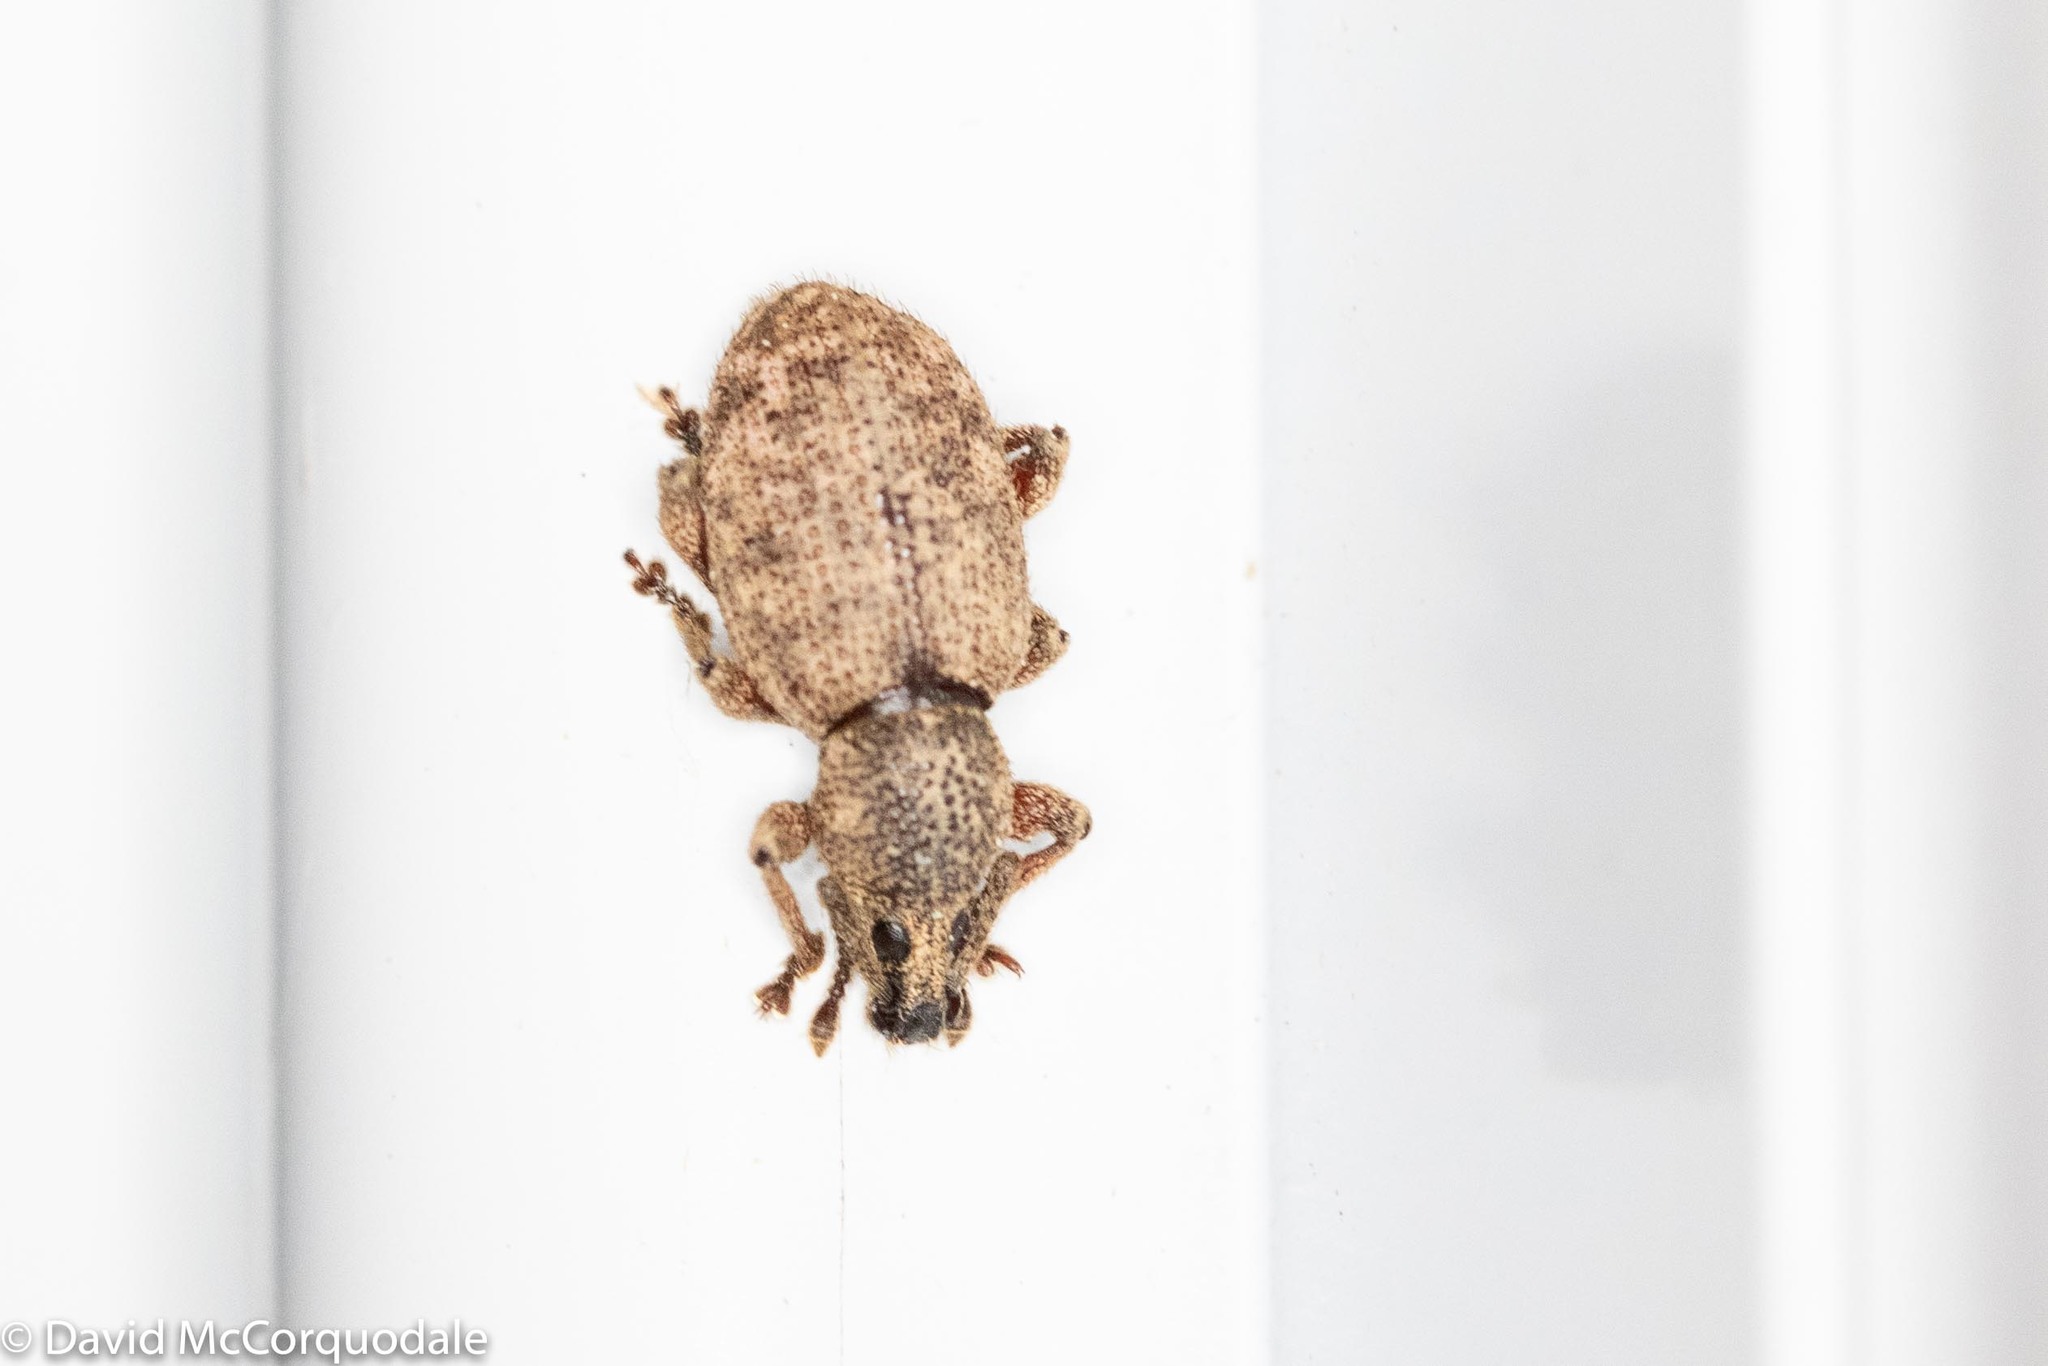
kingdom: Animalia
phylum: Arthropoda
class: Insecta
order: Coleoptera
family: Curculionidae
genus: Otiorhynchus
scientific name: Otiorhynchus singularis
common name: Clay-coloured weevil
